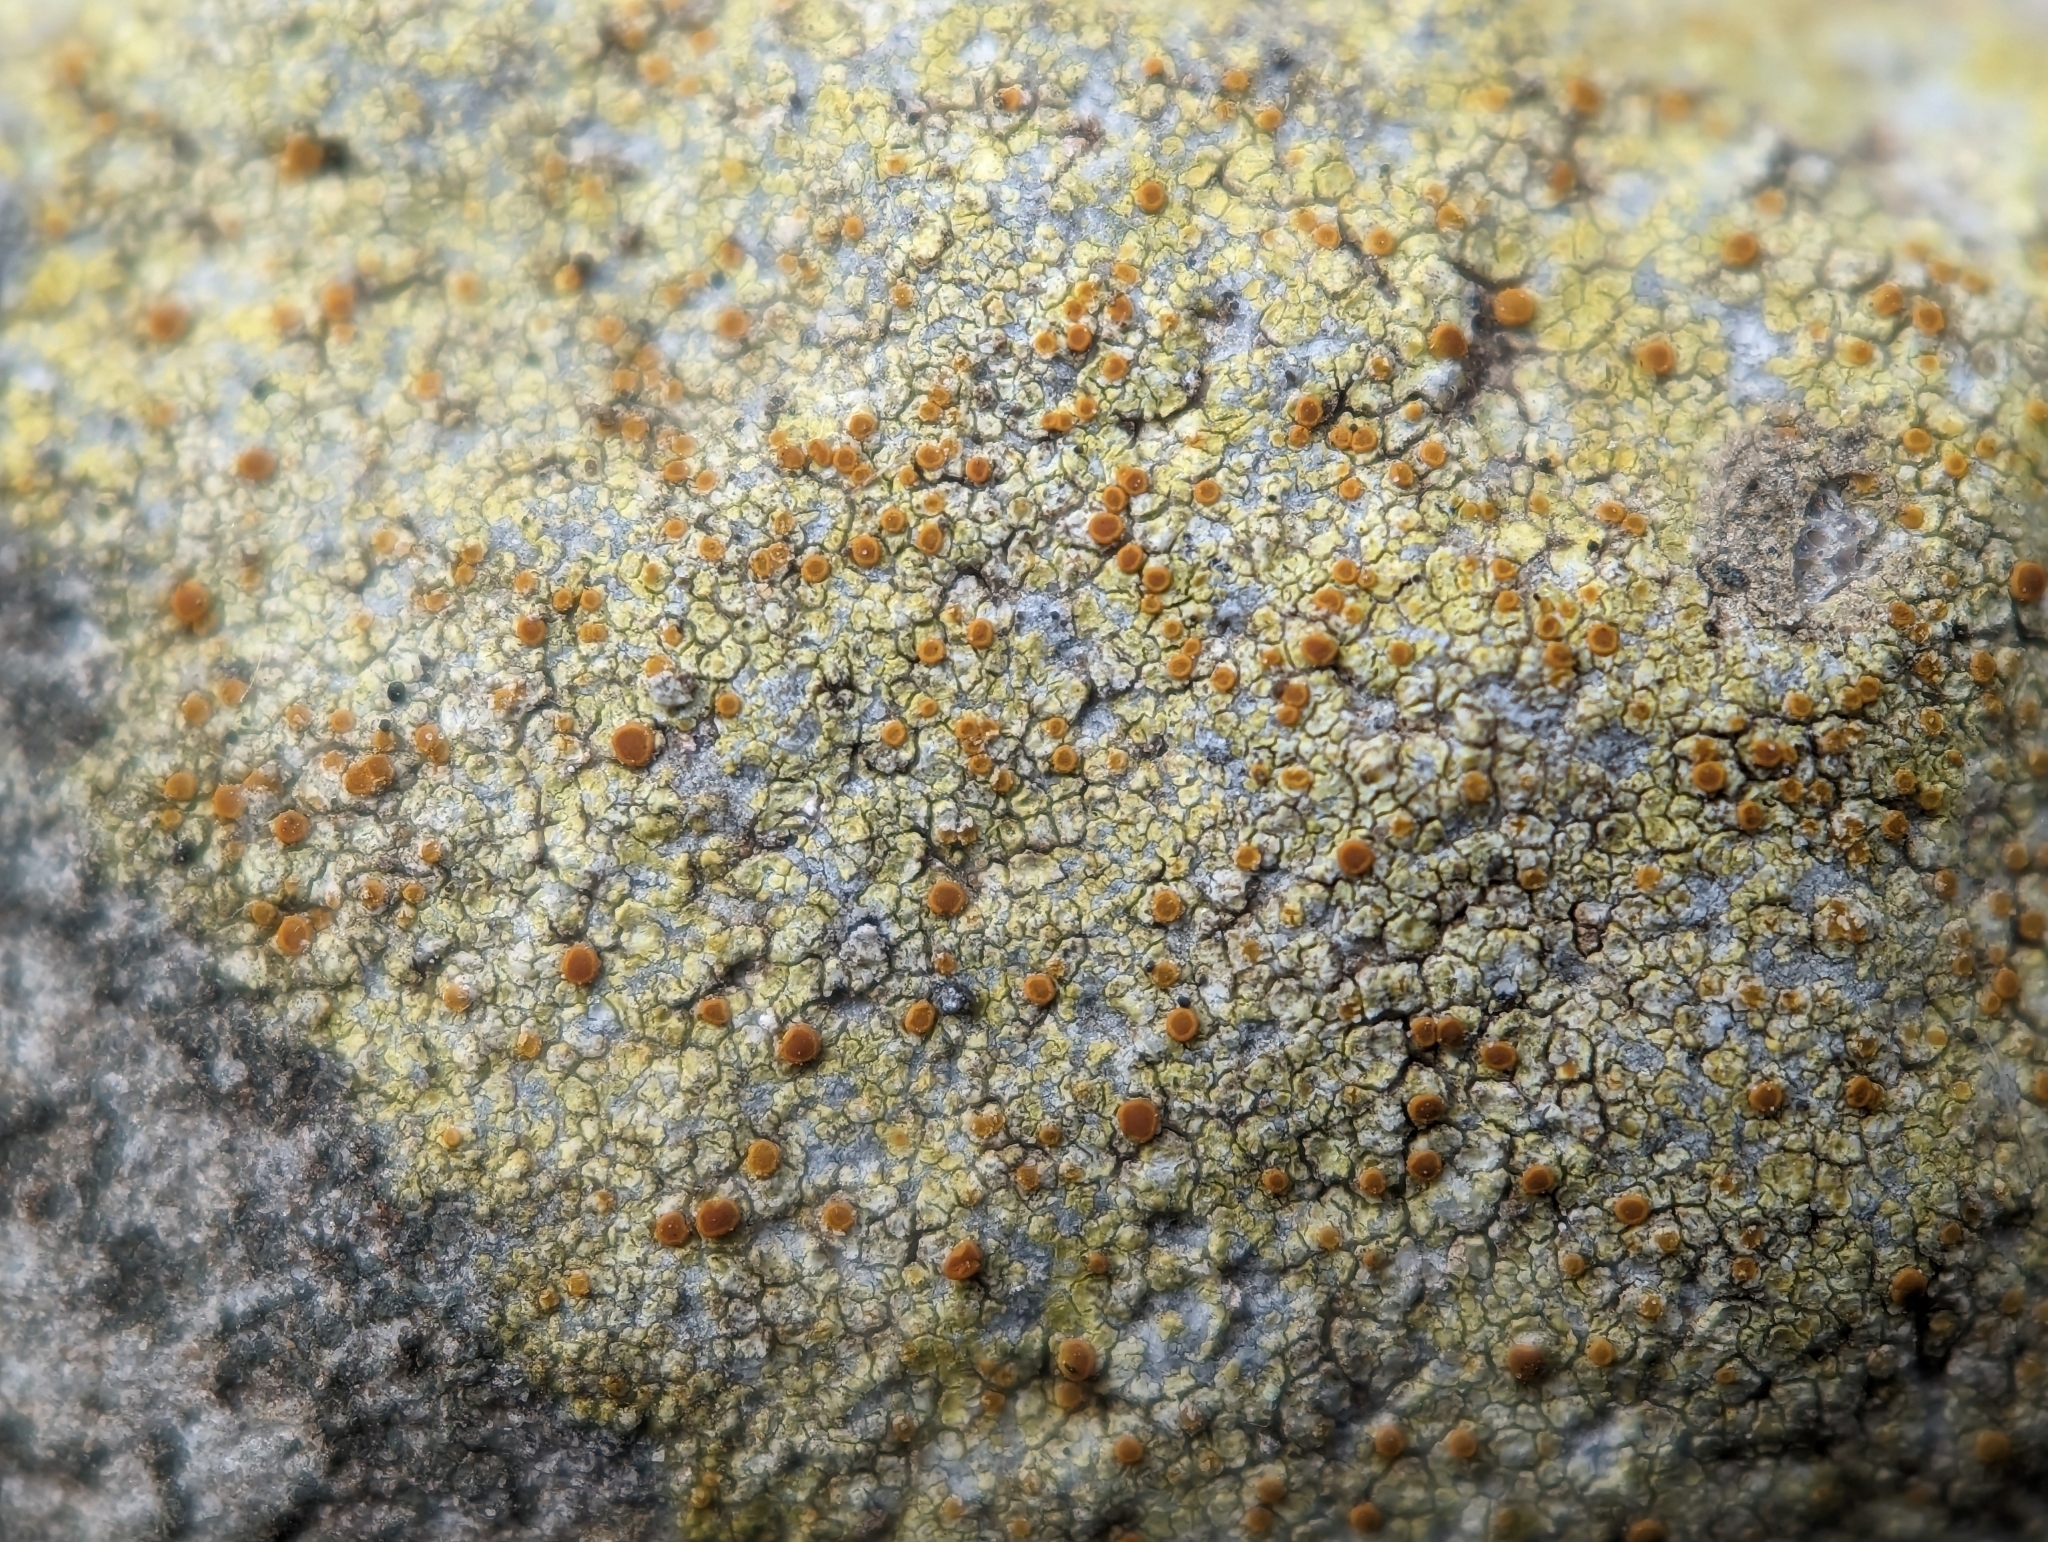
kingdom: Fungi
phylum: Ascomycota
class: Lecanoromycetes
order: Teloschistales
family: Teloschistaceae
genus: Gyalolechia
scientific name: Gyalolechia flavovirescens
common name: Sulphur firedot
